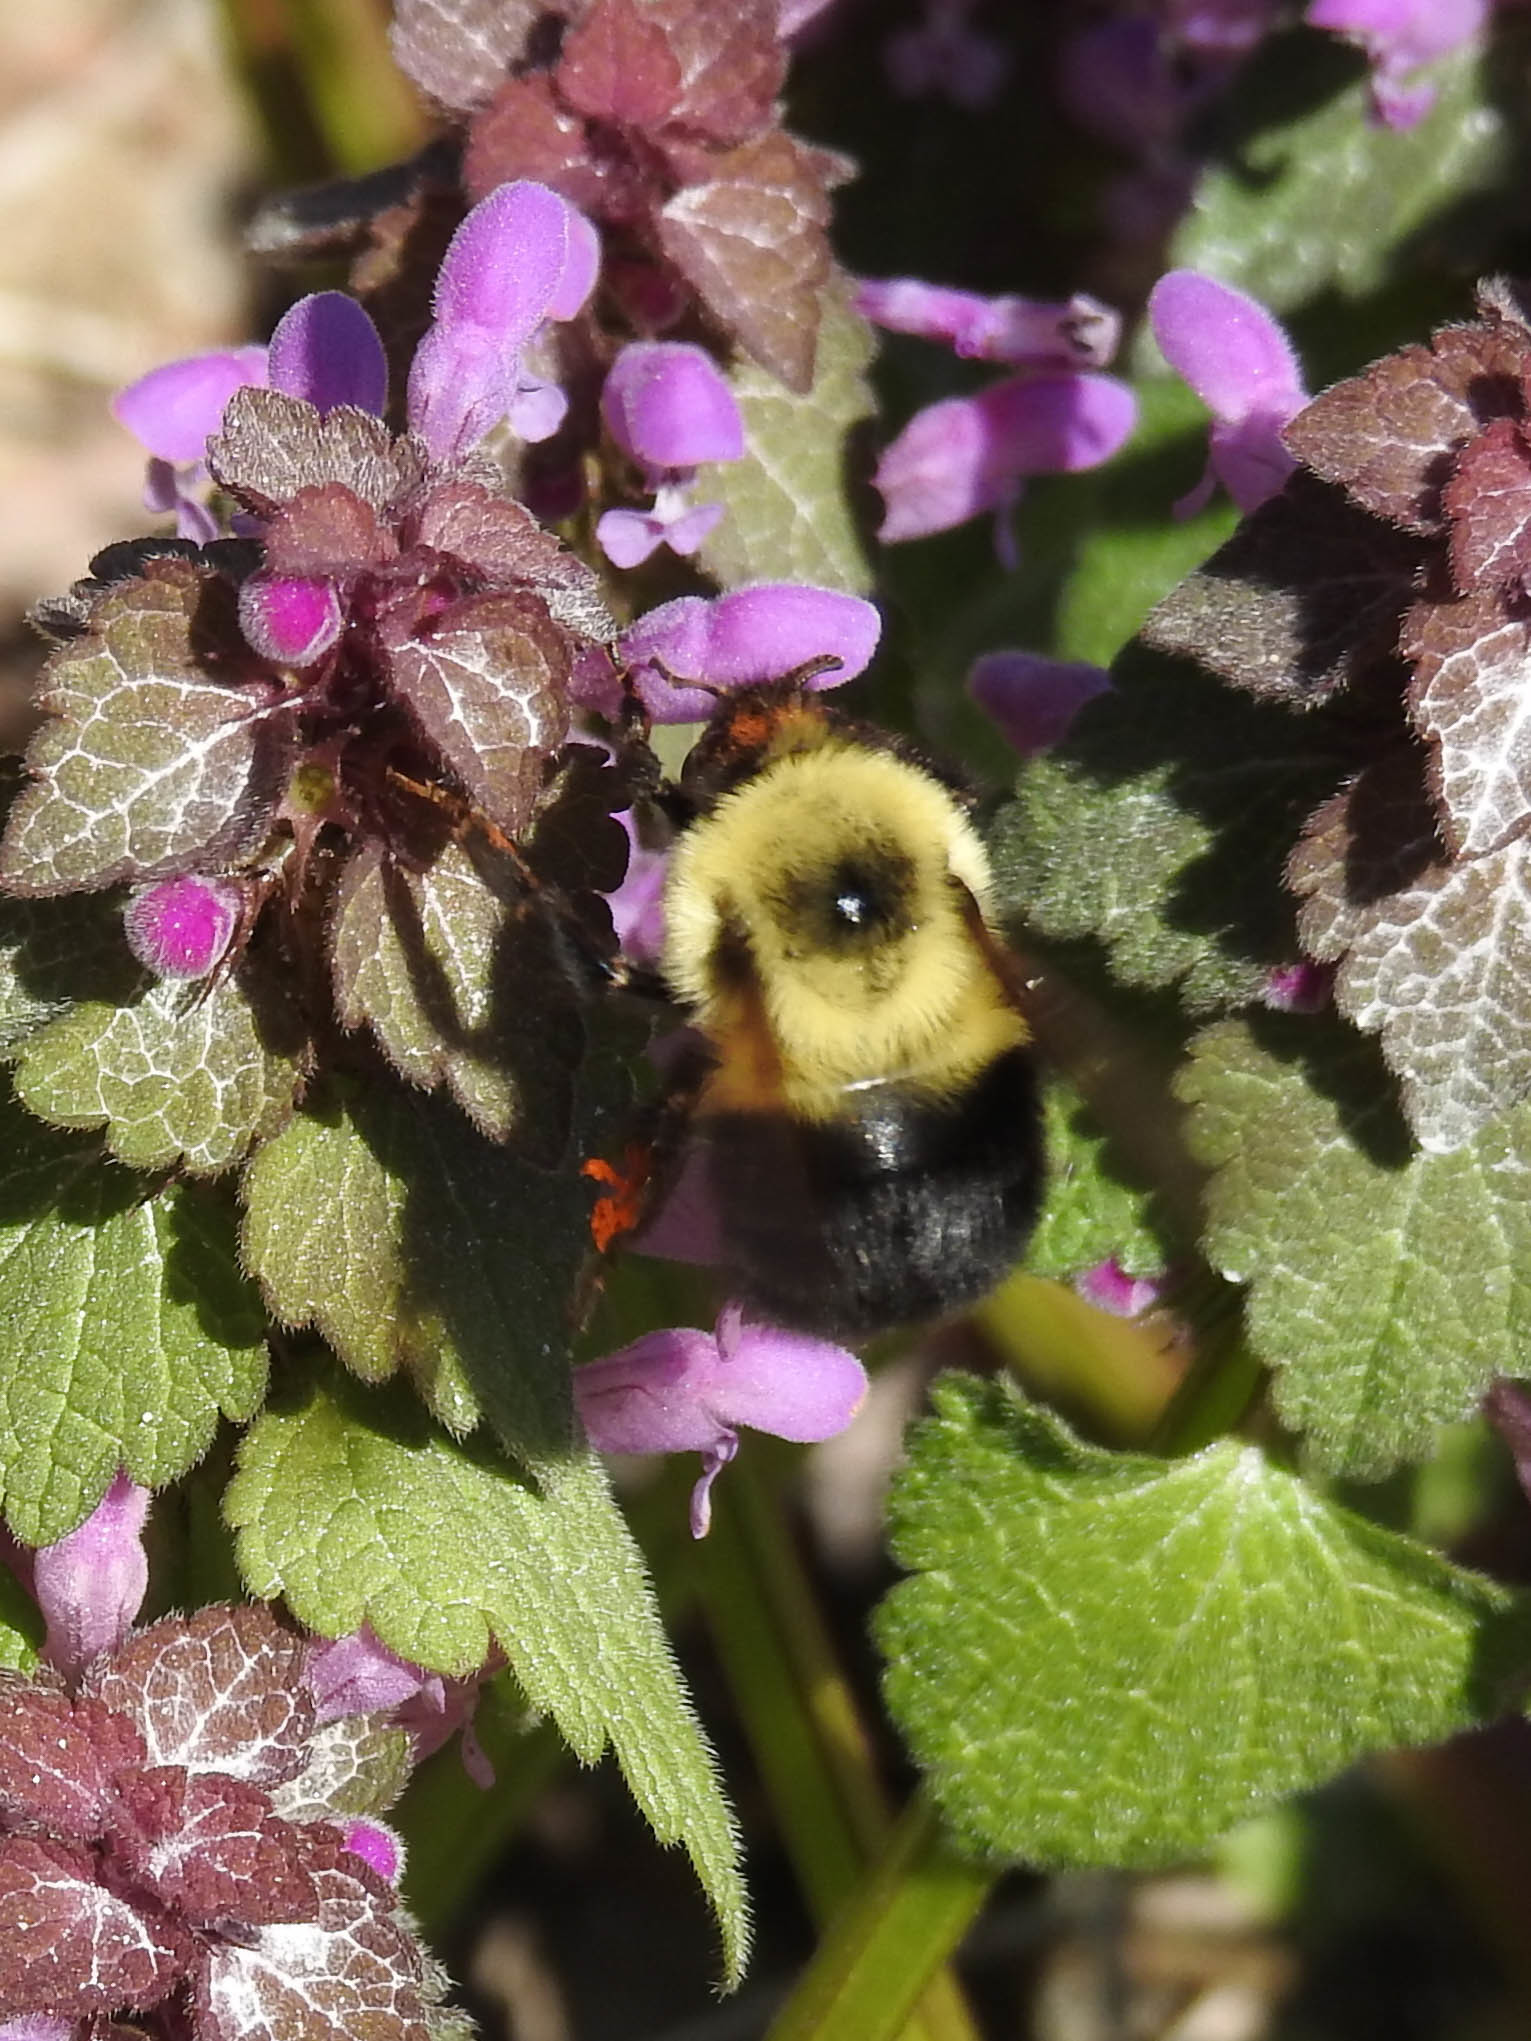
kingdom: Animalia
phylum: Arthropoda
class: Insecta
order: Hymenoptera
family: Apidae
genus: Bombus
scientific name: Bombus bimaculatus
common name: Two-spotted bumble bee
